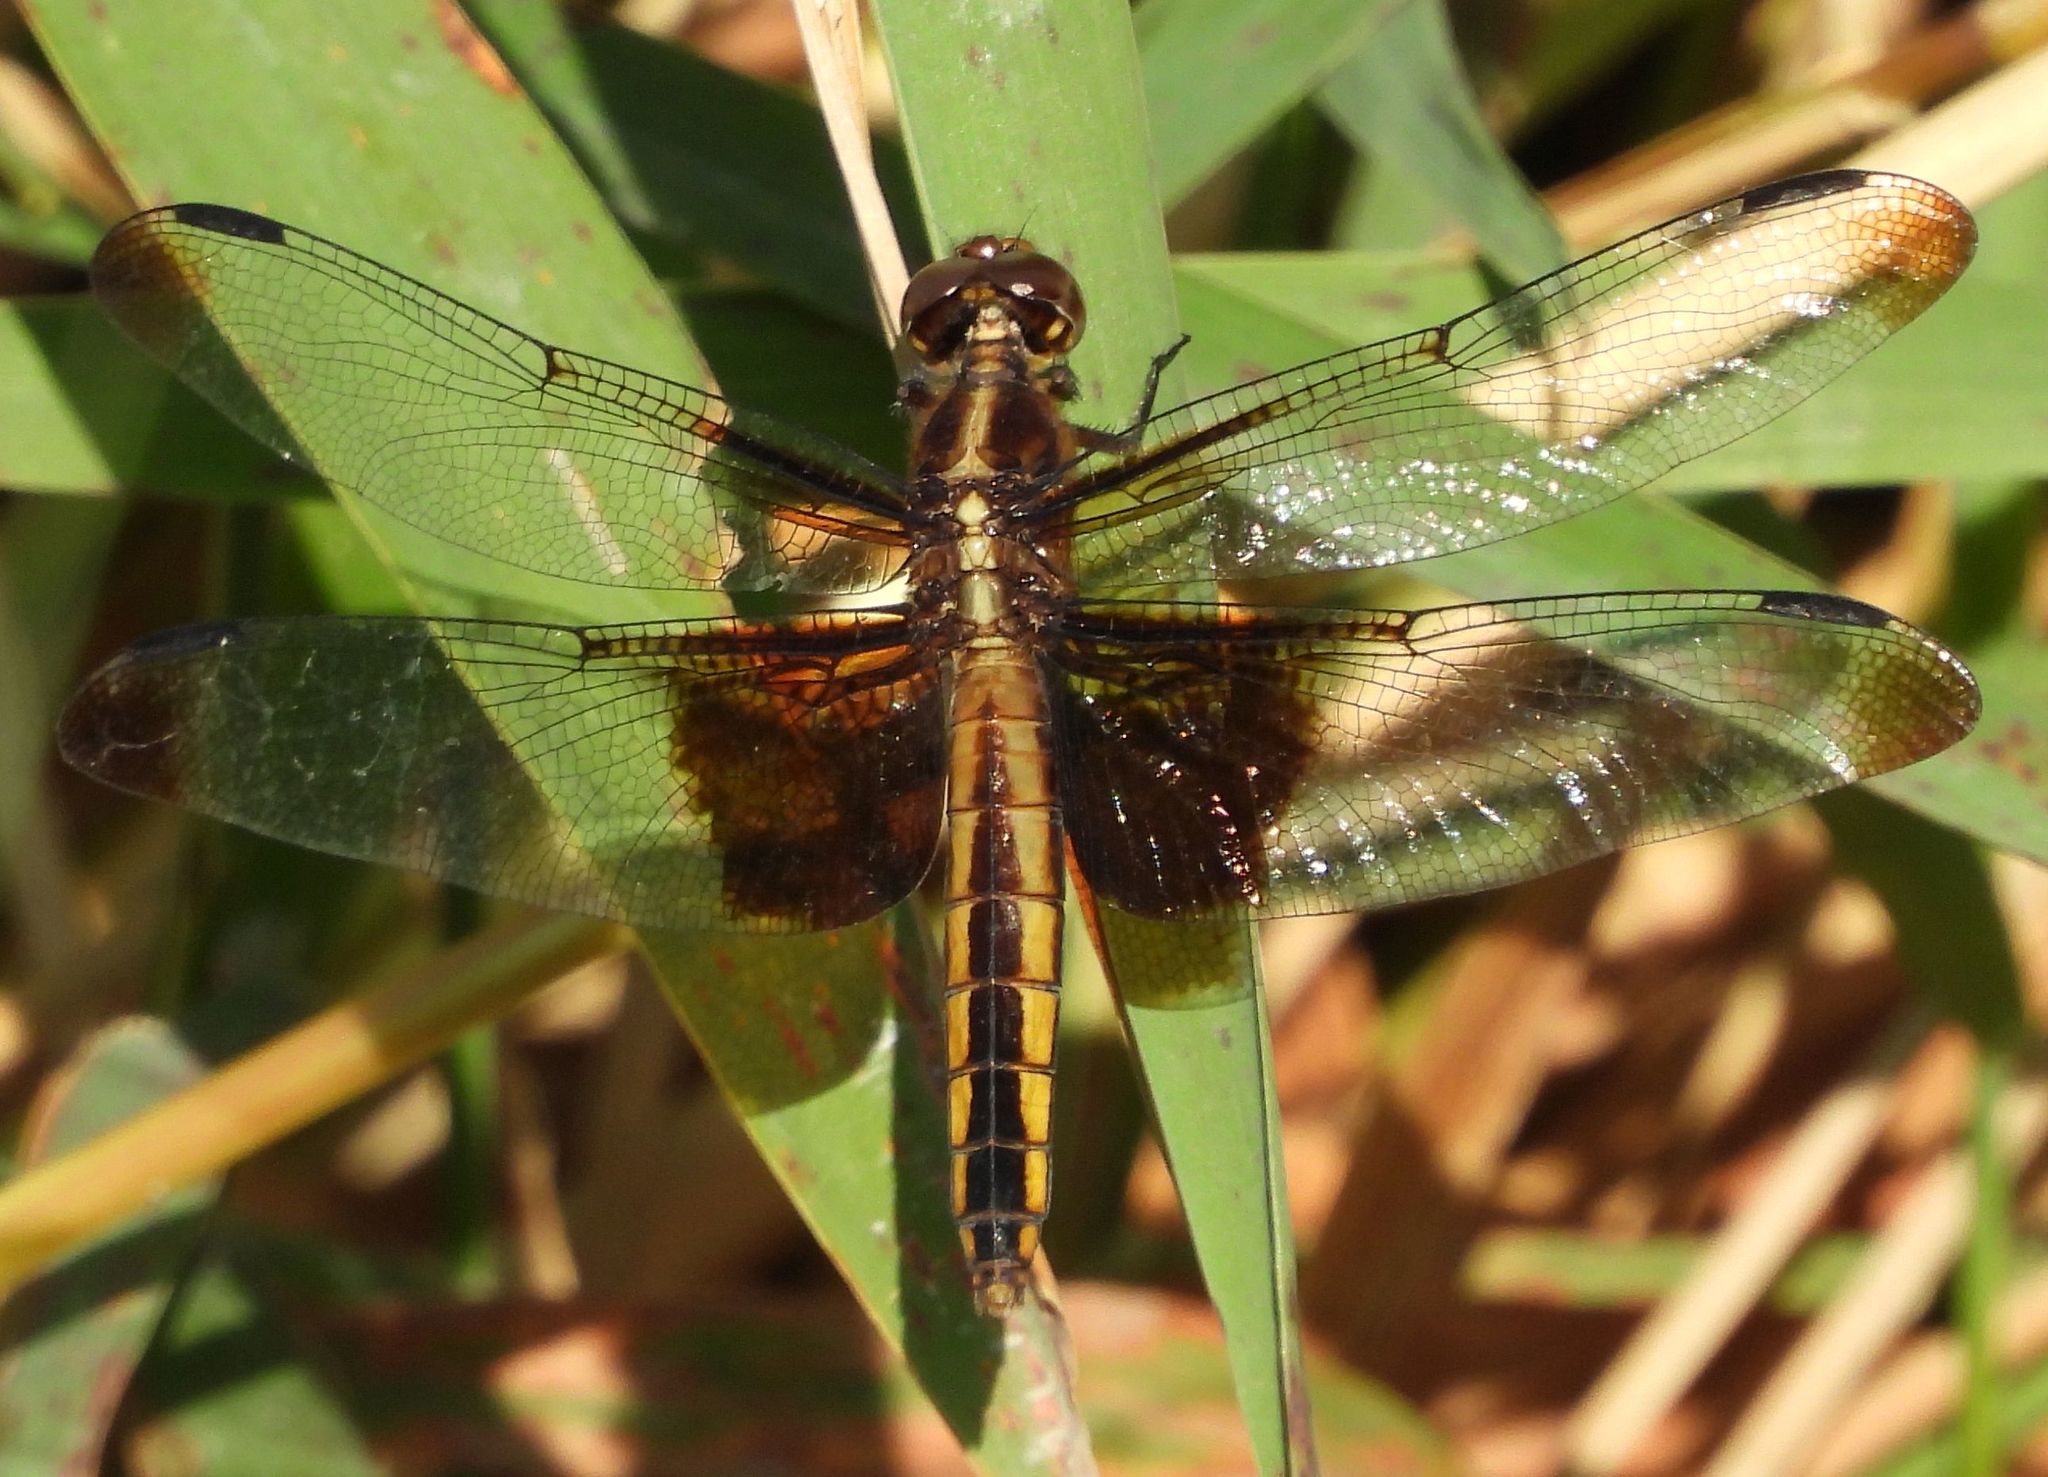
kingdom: Animalia
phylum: Arthropoda
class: Insecta
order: Odonata
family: Libellulidae
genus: Libellula
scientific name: Libellula luctuosa
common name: Widow skimmer
